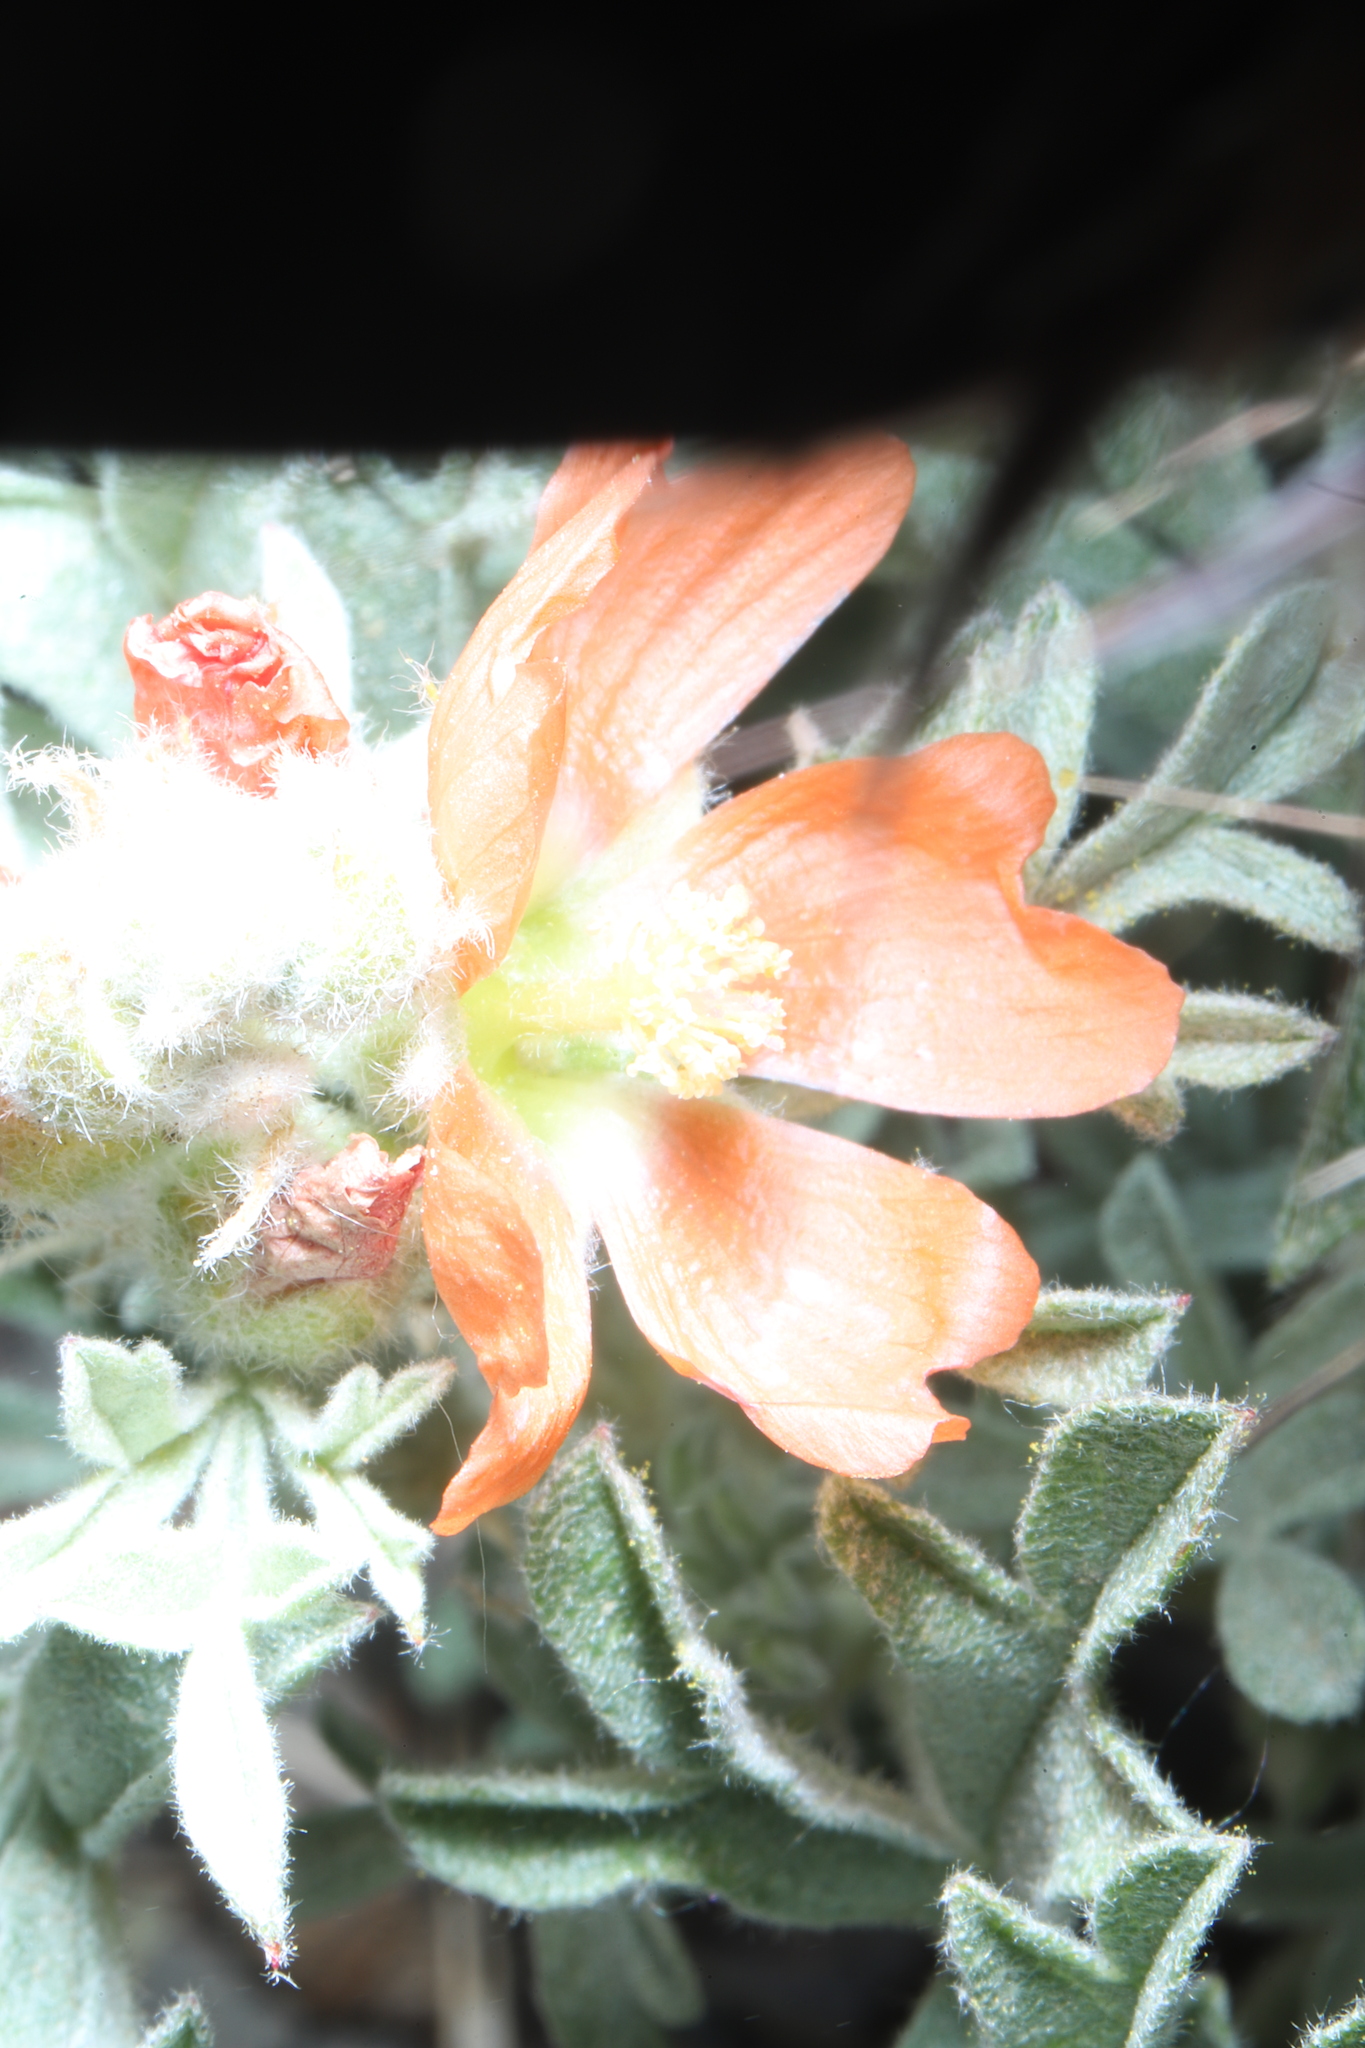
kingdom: Plantae
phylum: Tracheophyta
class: Magnoliopsida
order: Malvales
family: Malvaceae
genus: Sphaeralcea
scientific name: Sphaeralcea coccinea
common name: Moss-rose
